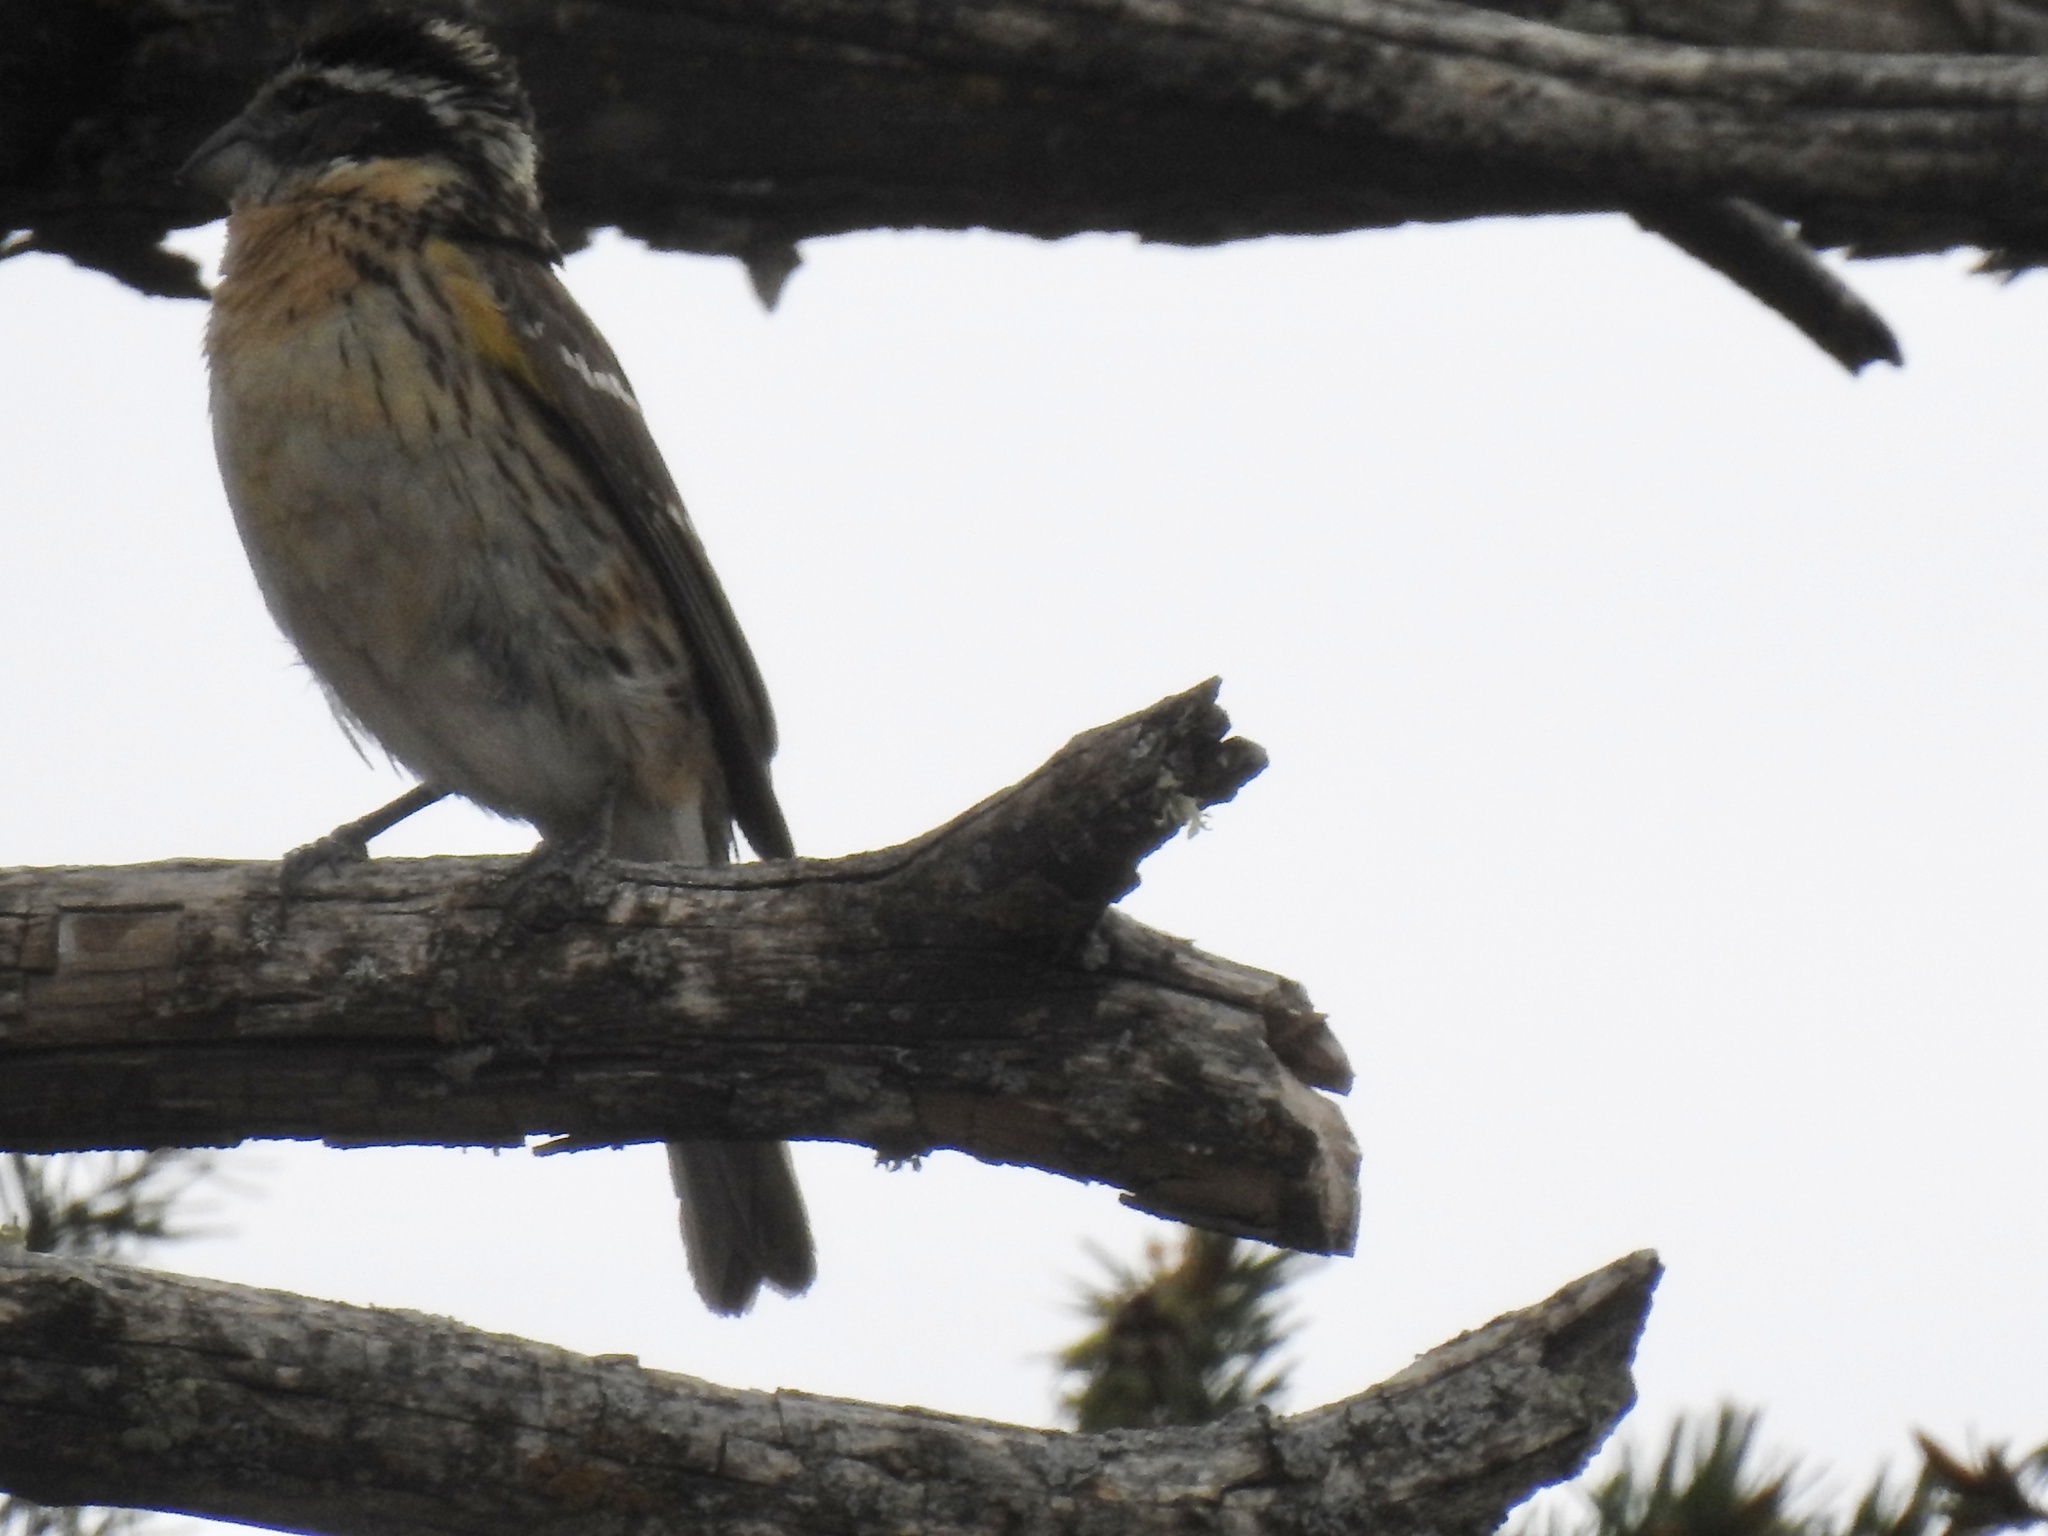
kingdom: Animalia
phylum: Chordata
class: Aves
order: Passeriformes
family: Cardinalidae
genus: Pheucticus
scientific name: Pheucticus melanocephalus
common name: Black-headed grosbeak
